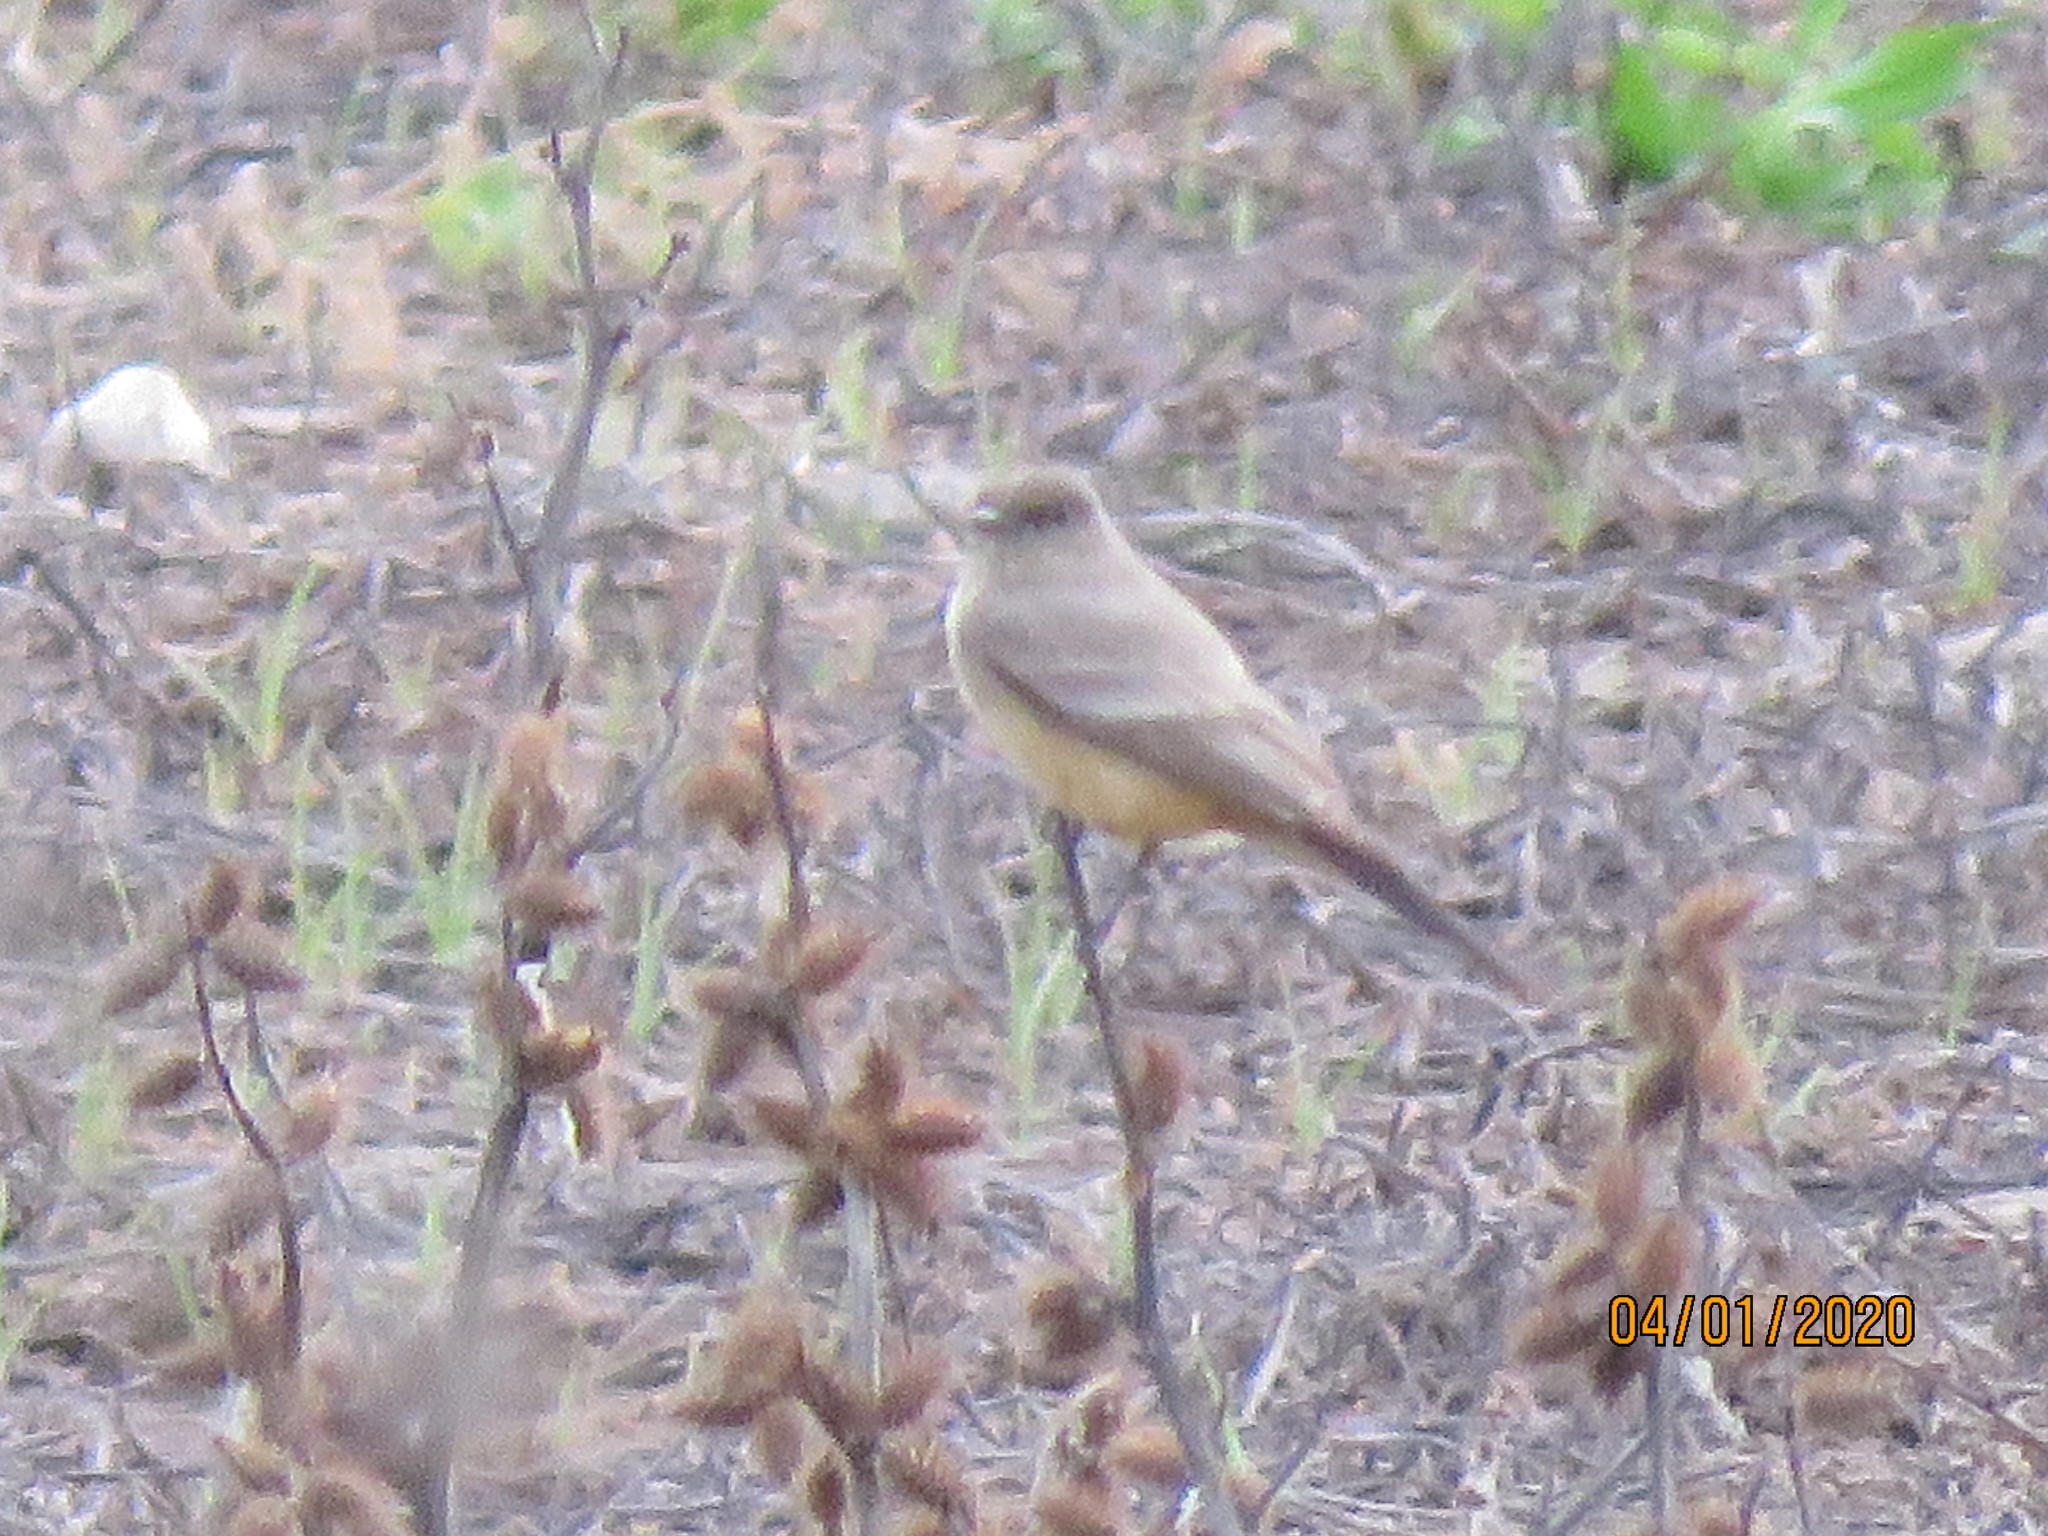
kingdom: Animalia
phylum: Chordata
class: Aves
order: Passeriformes
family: Tyrannidae
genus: Sayornis
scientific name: Sayornis saya
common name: Say's phoebe
